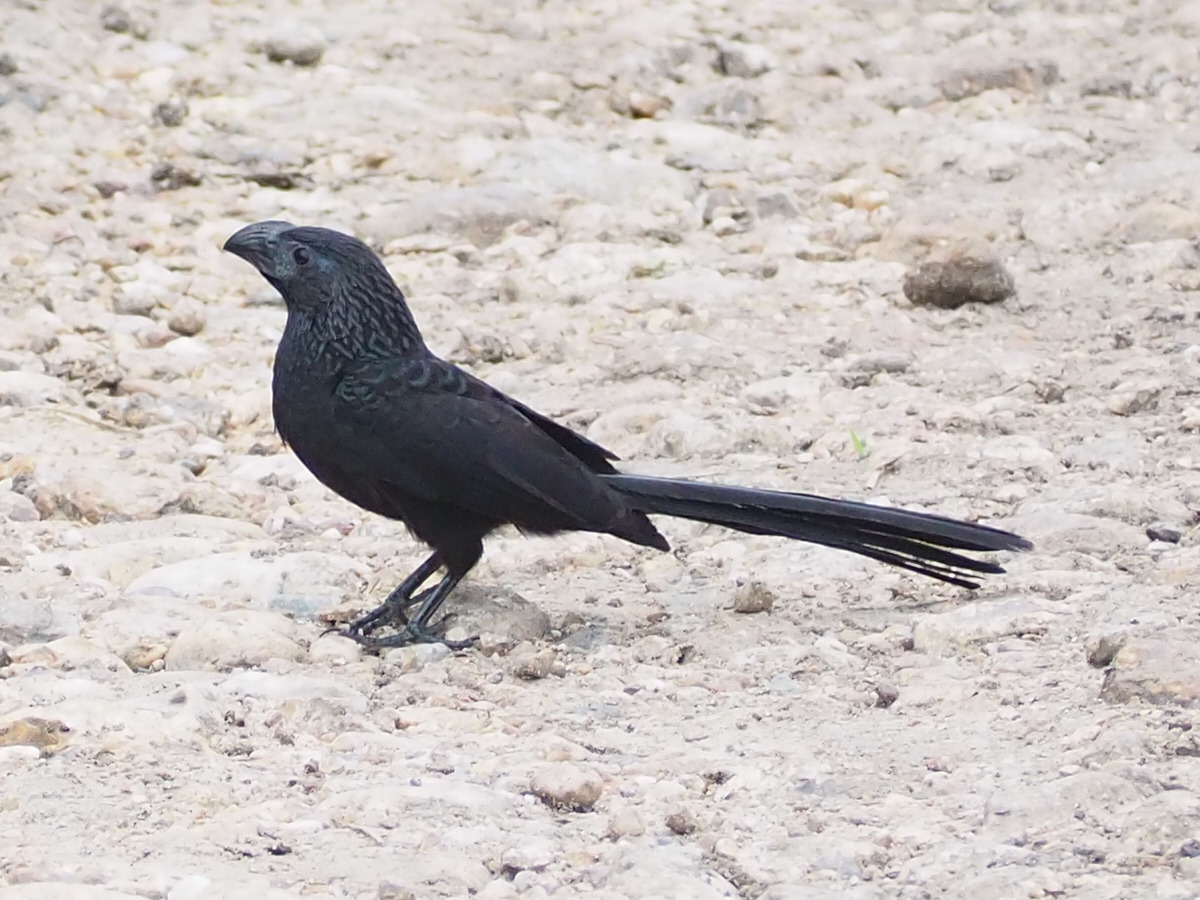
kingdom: Animalia
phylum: Chordata
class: Aves
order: Cuculiformes
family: Cuculidae
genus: Crotophaga
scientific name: Crotophaga sulcirostris
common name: Groove-billed ani
